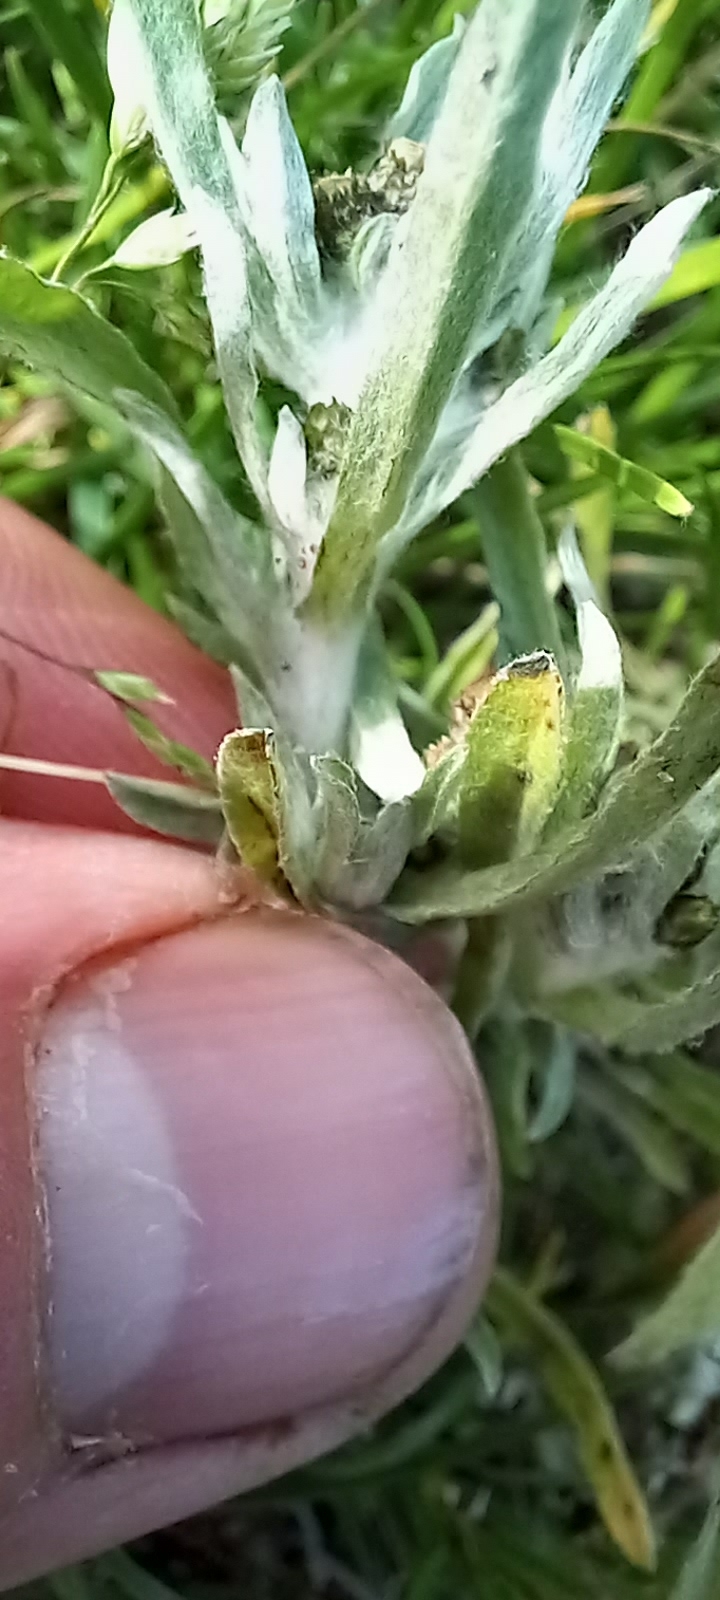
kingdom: Plantae
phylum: Tracheophyta
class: Magnoliopsida
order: Asterales
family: Asteraceae
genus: Gnaphalium
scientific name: Gnaphalium uliginosum
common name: Marsh cudweed
